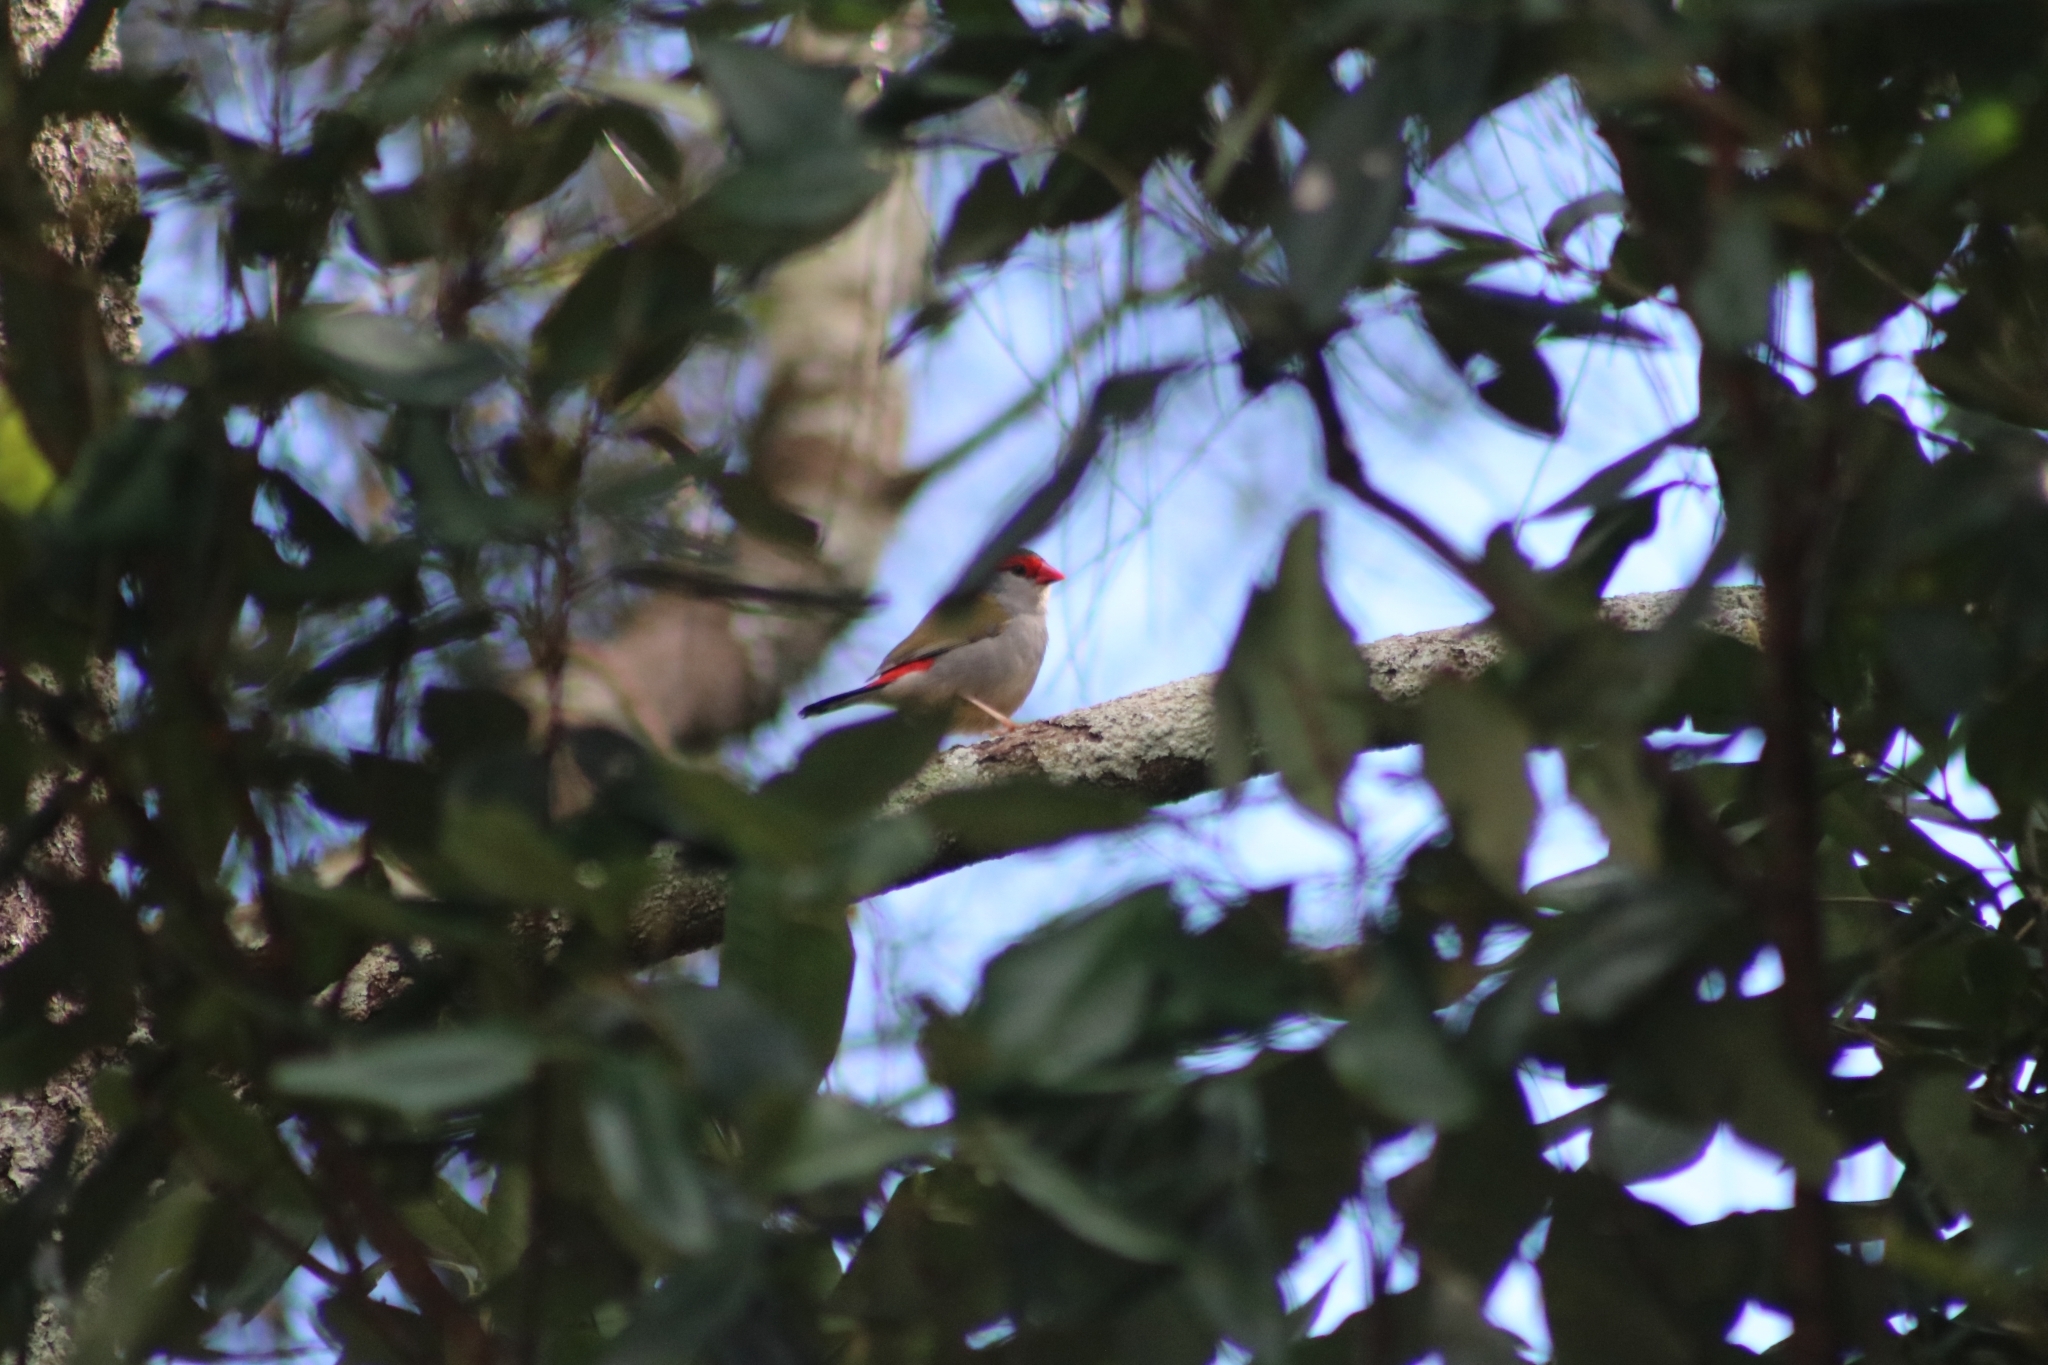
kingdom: Animalia
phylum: Chordata
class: Aves
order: Passeriformes
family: Estrildidae
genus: Neochmia
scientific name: Neochmia temporalis
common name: Red-browed finch
